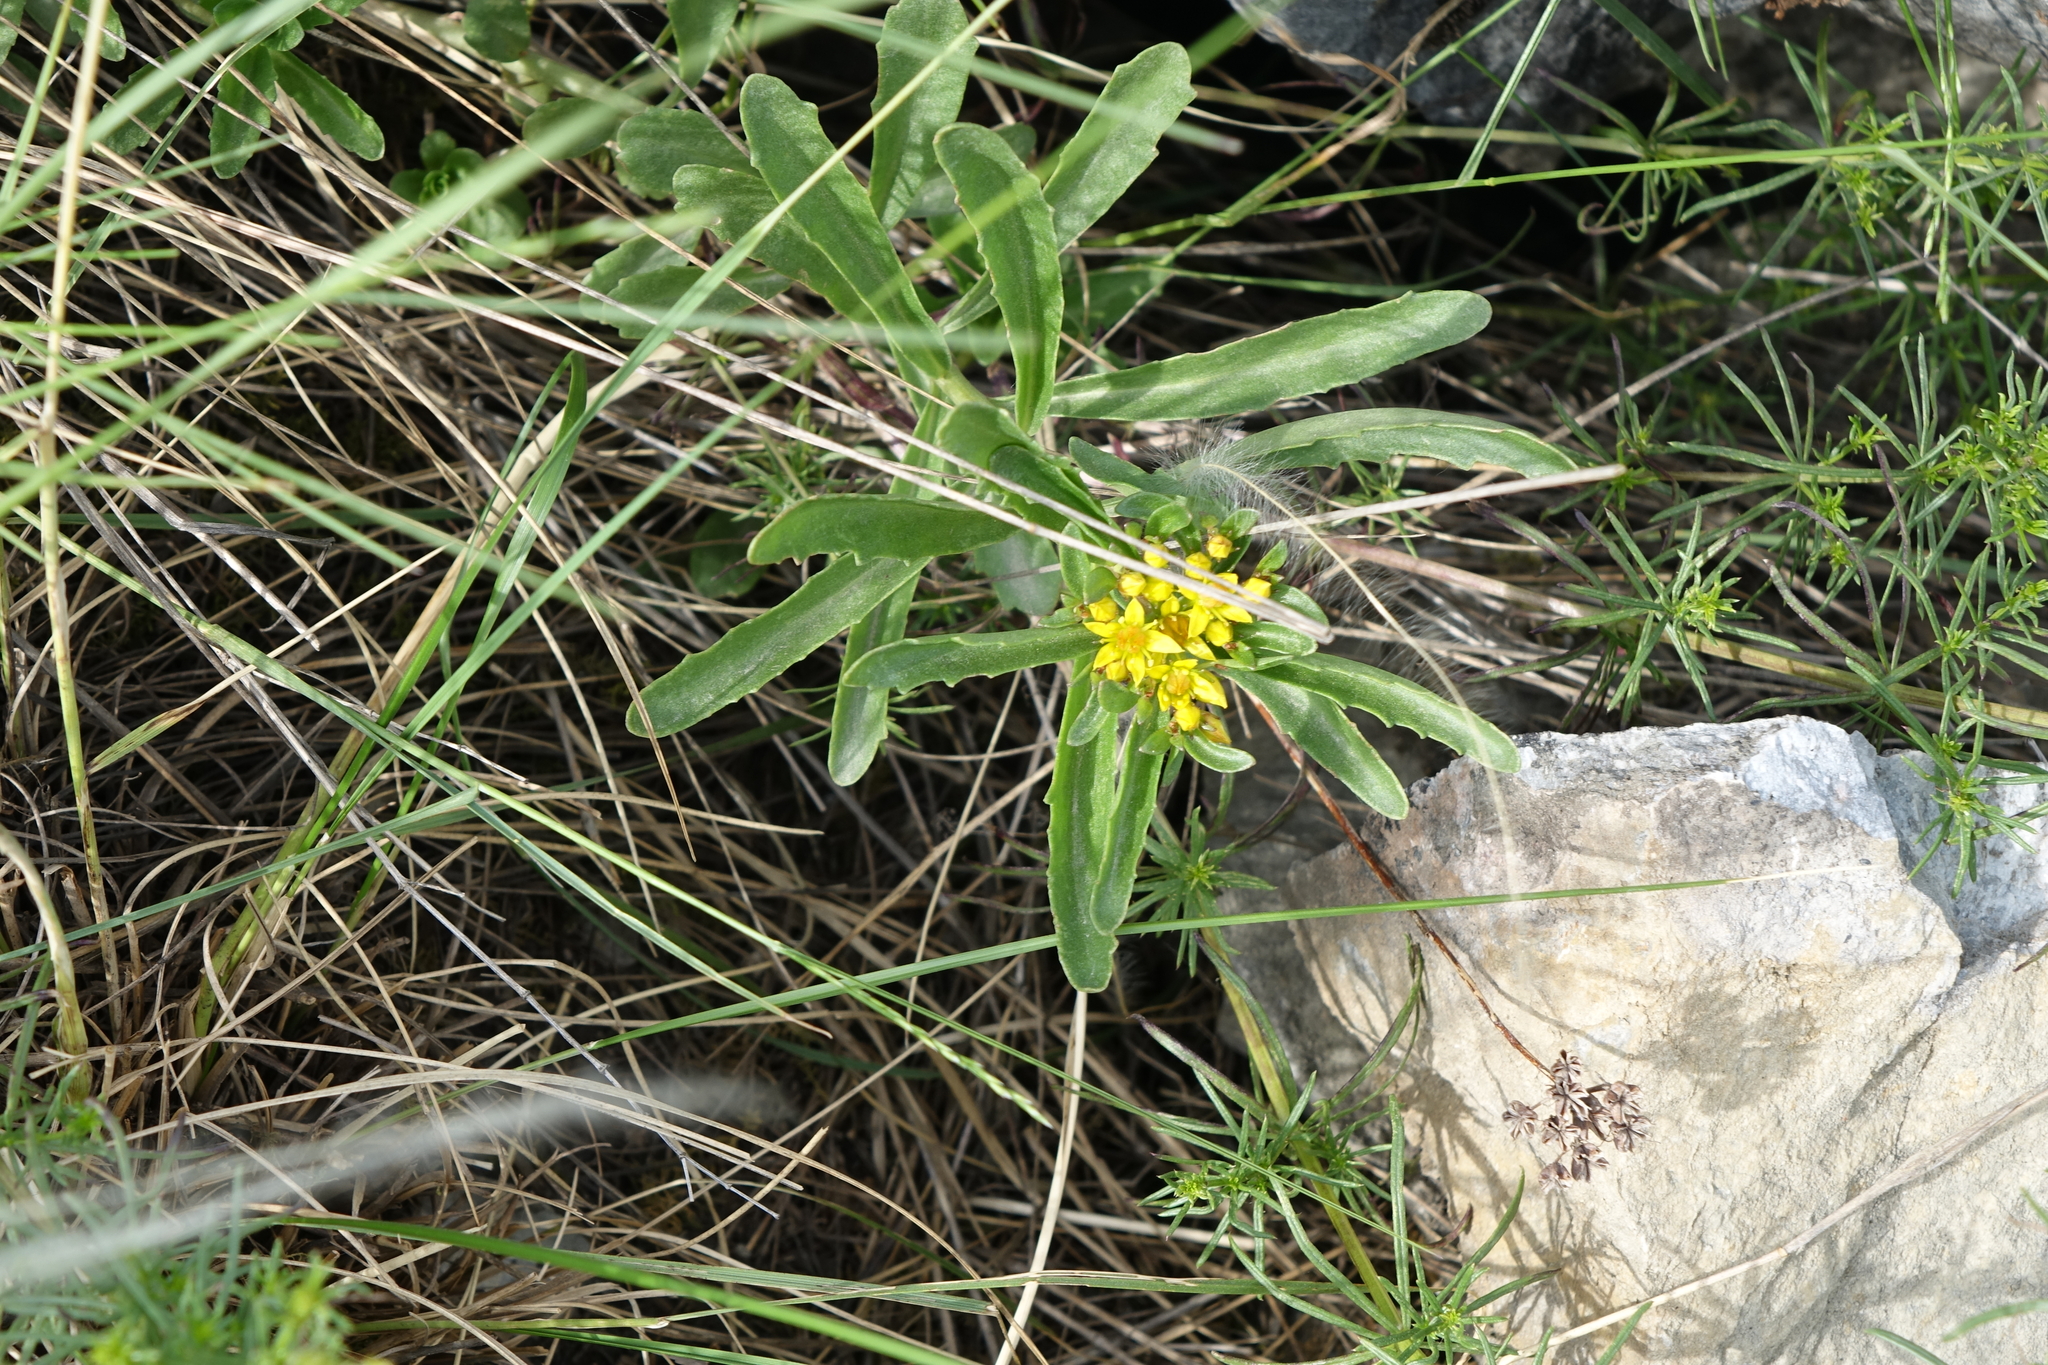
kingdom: Plantae
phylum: Tracheophyta
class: Magnoliopsida
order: Saxifragales
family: Crassulaceae
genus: Phedimus
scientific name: Phedimus aizoon
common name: Orpin aizoon
